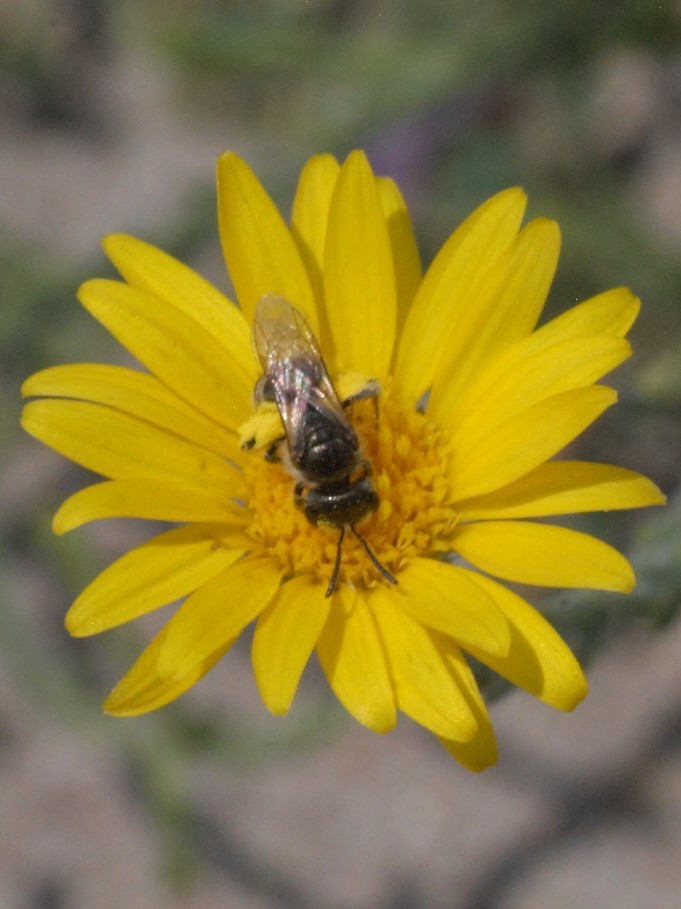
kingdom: Animalia
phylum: Arthropoda
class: Insecta
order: Hymenoptera
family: Halictidae
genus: Halictus
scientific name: Halictus tripartitus
